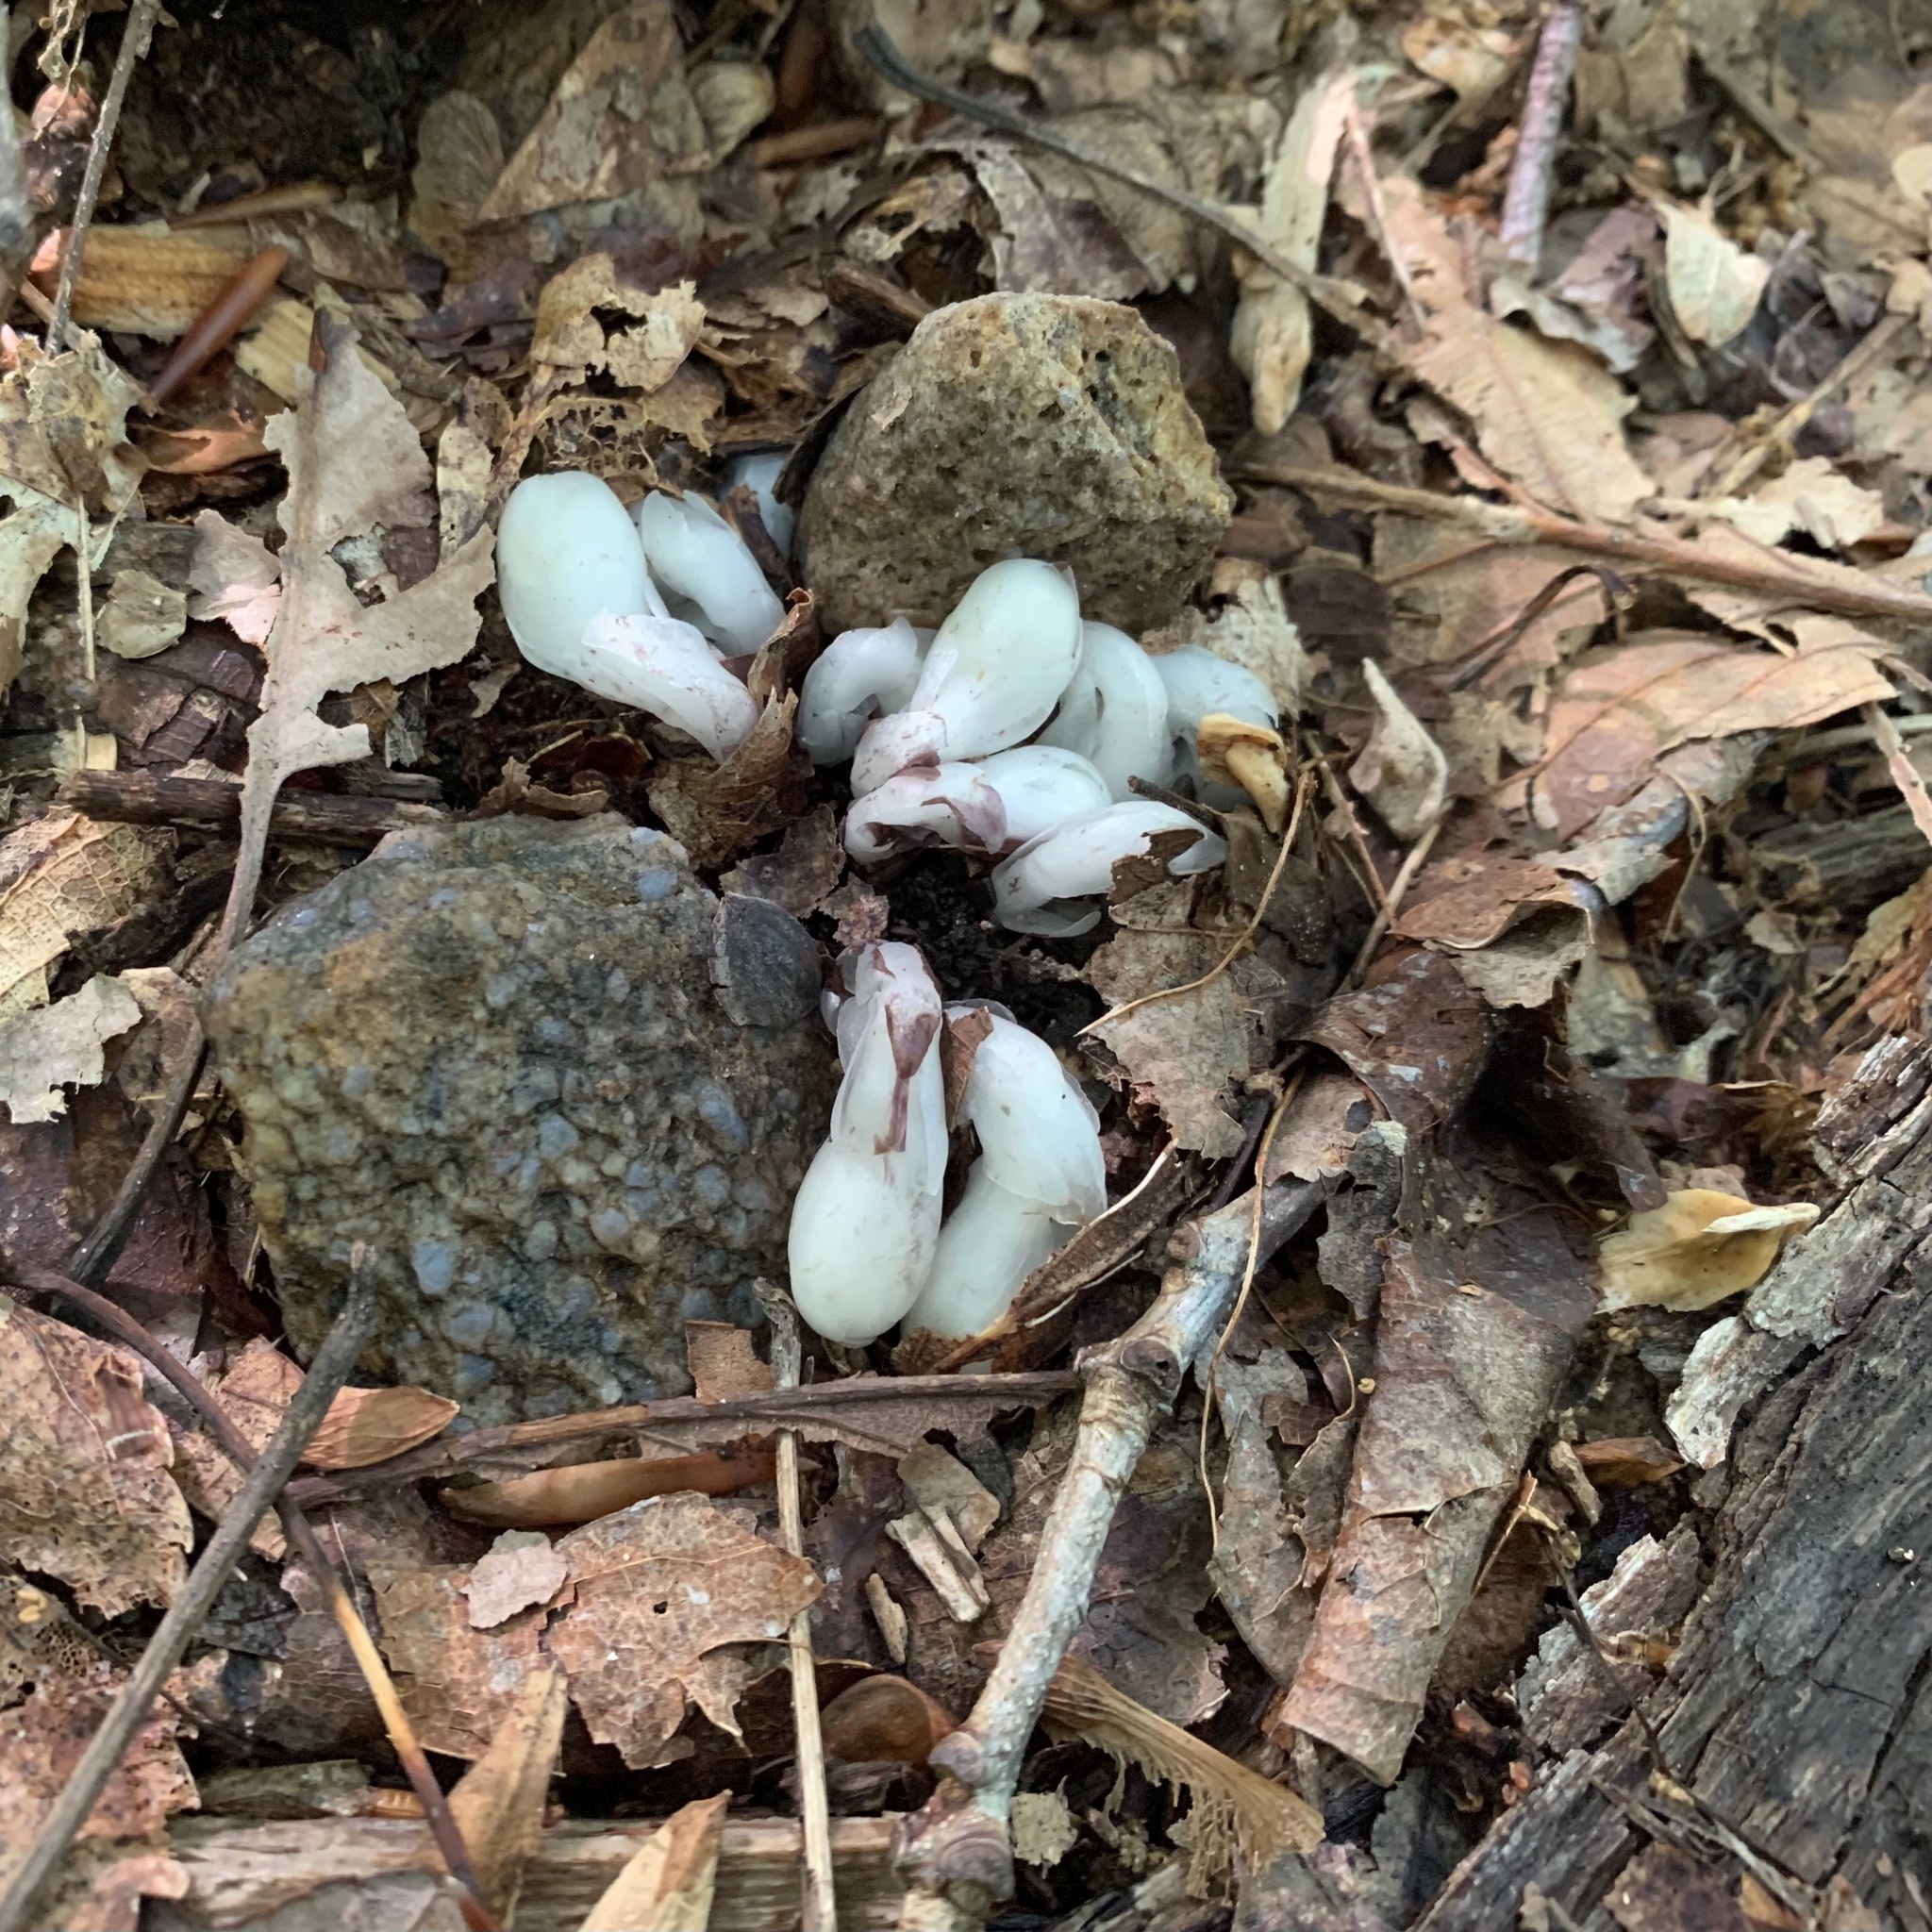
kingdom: Plantae
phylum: Tracheophyta
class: Magnoliopsida
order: Ericales
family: Ericaceae
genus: Monotropa
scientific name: Monotropa uniflora
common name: Convulsion root
